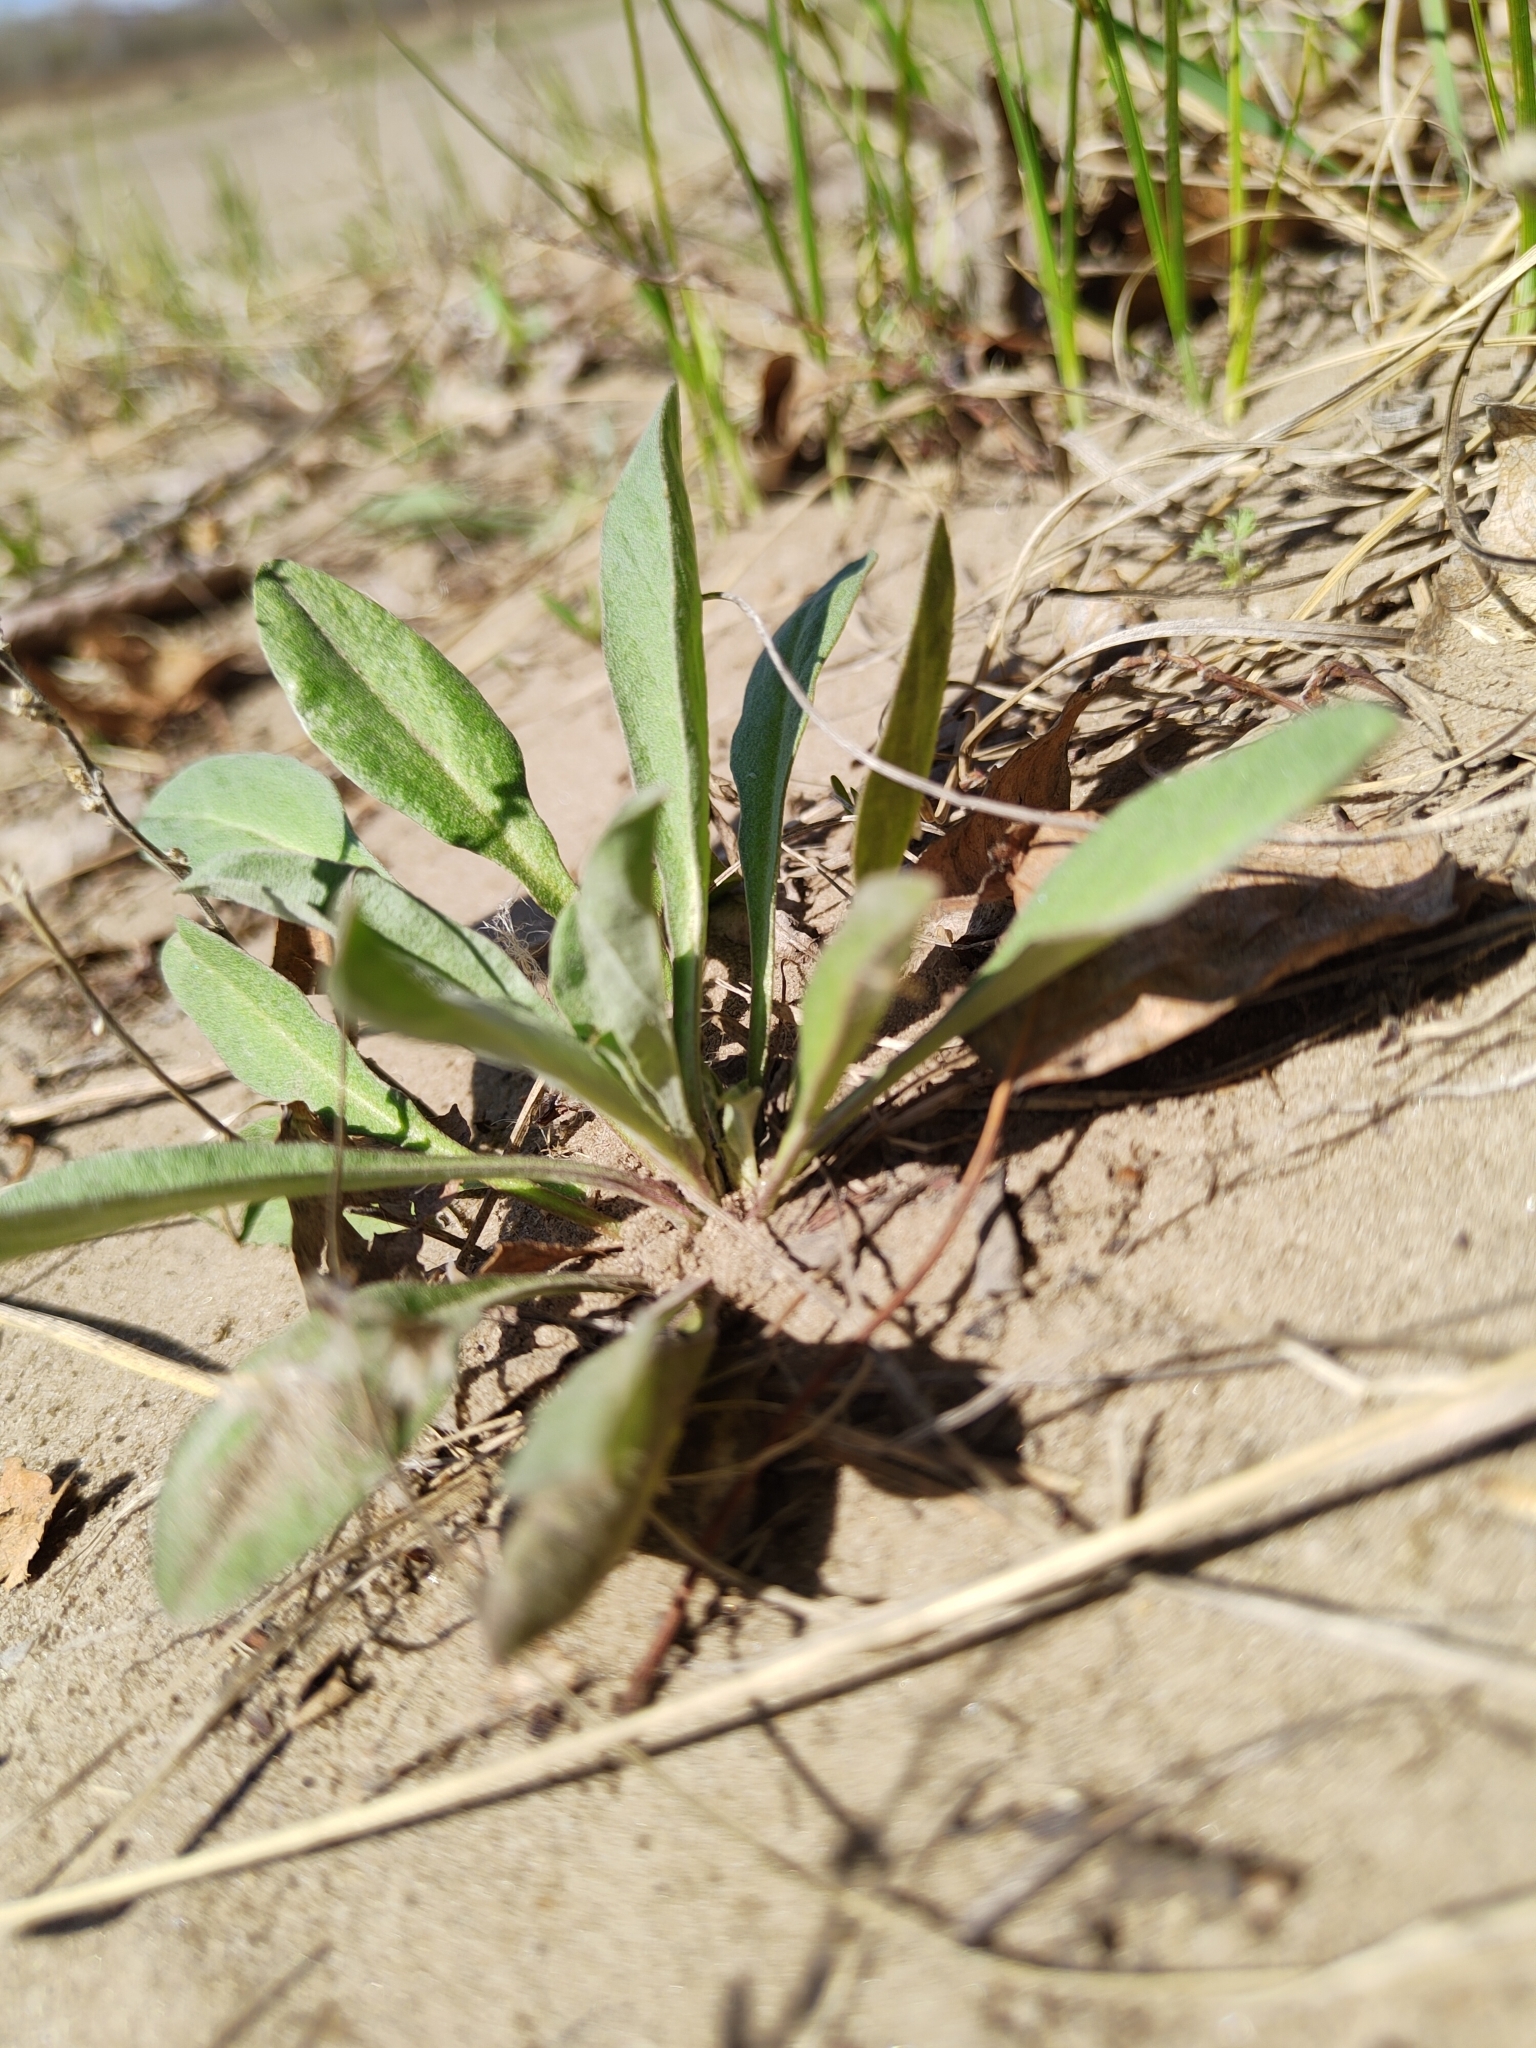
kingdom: Plantae
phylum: Tracheophyta
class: Magnoliopsida
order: Brassicales
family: Brassicaceae
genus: Berteroa
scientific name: Berteroa incana
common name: Hoary alison
